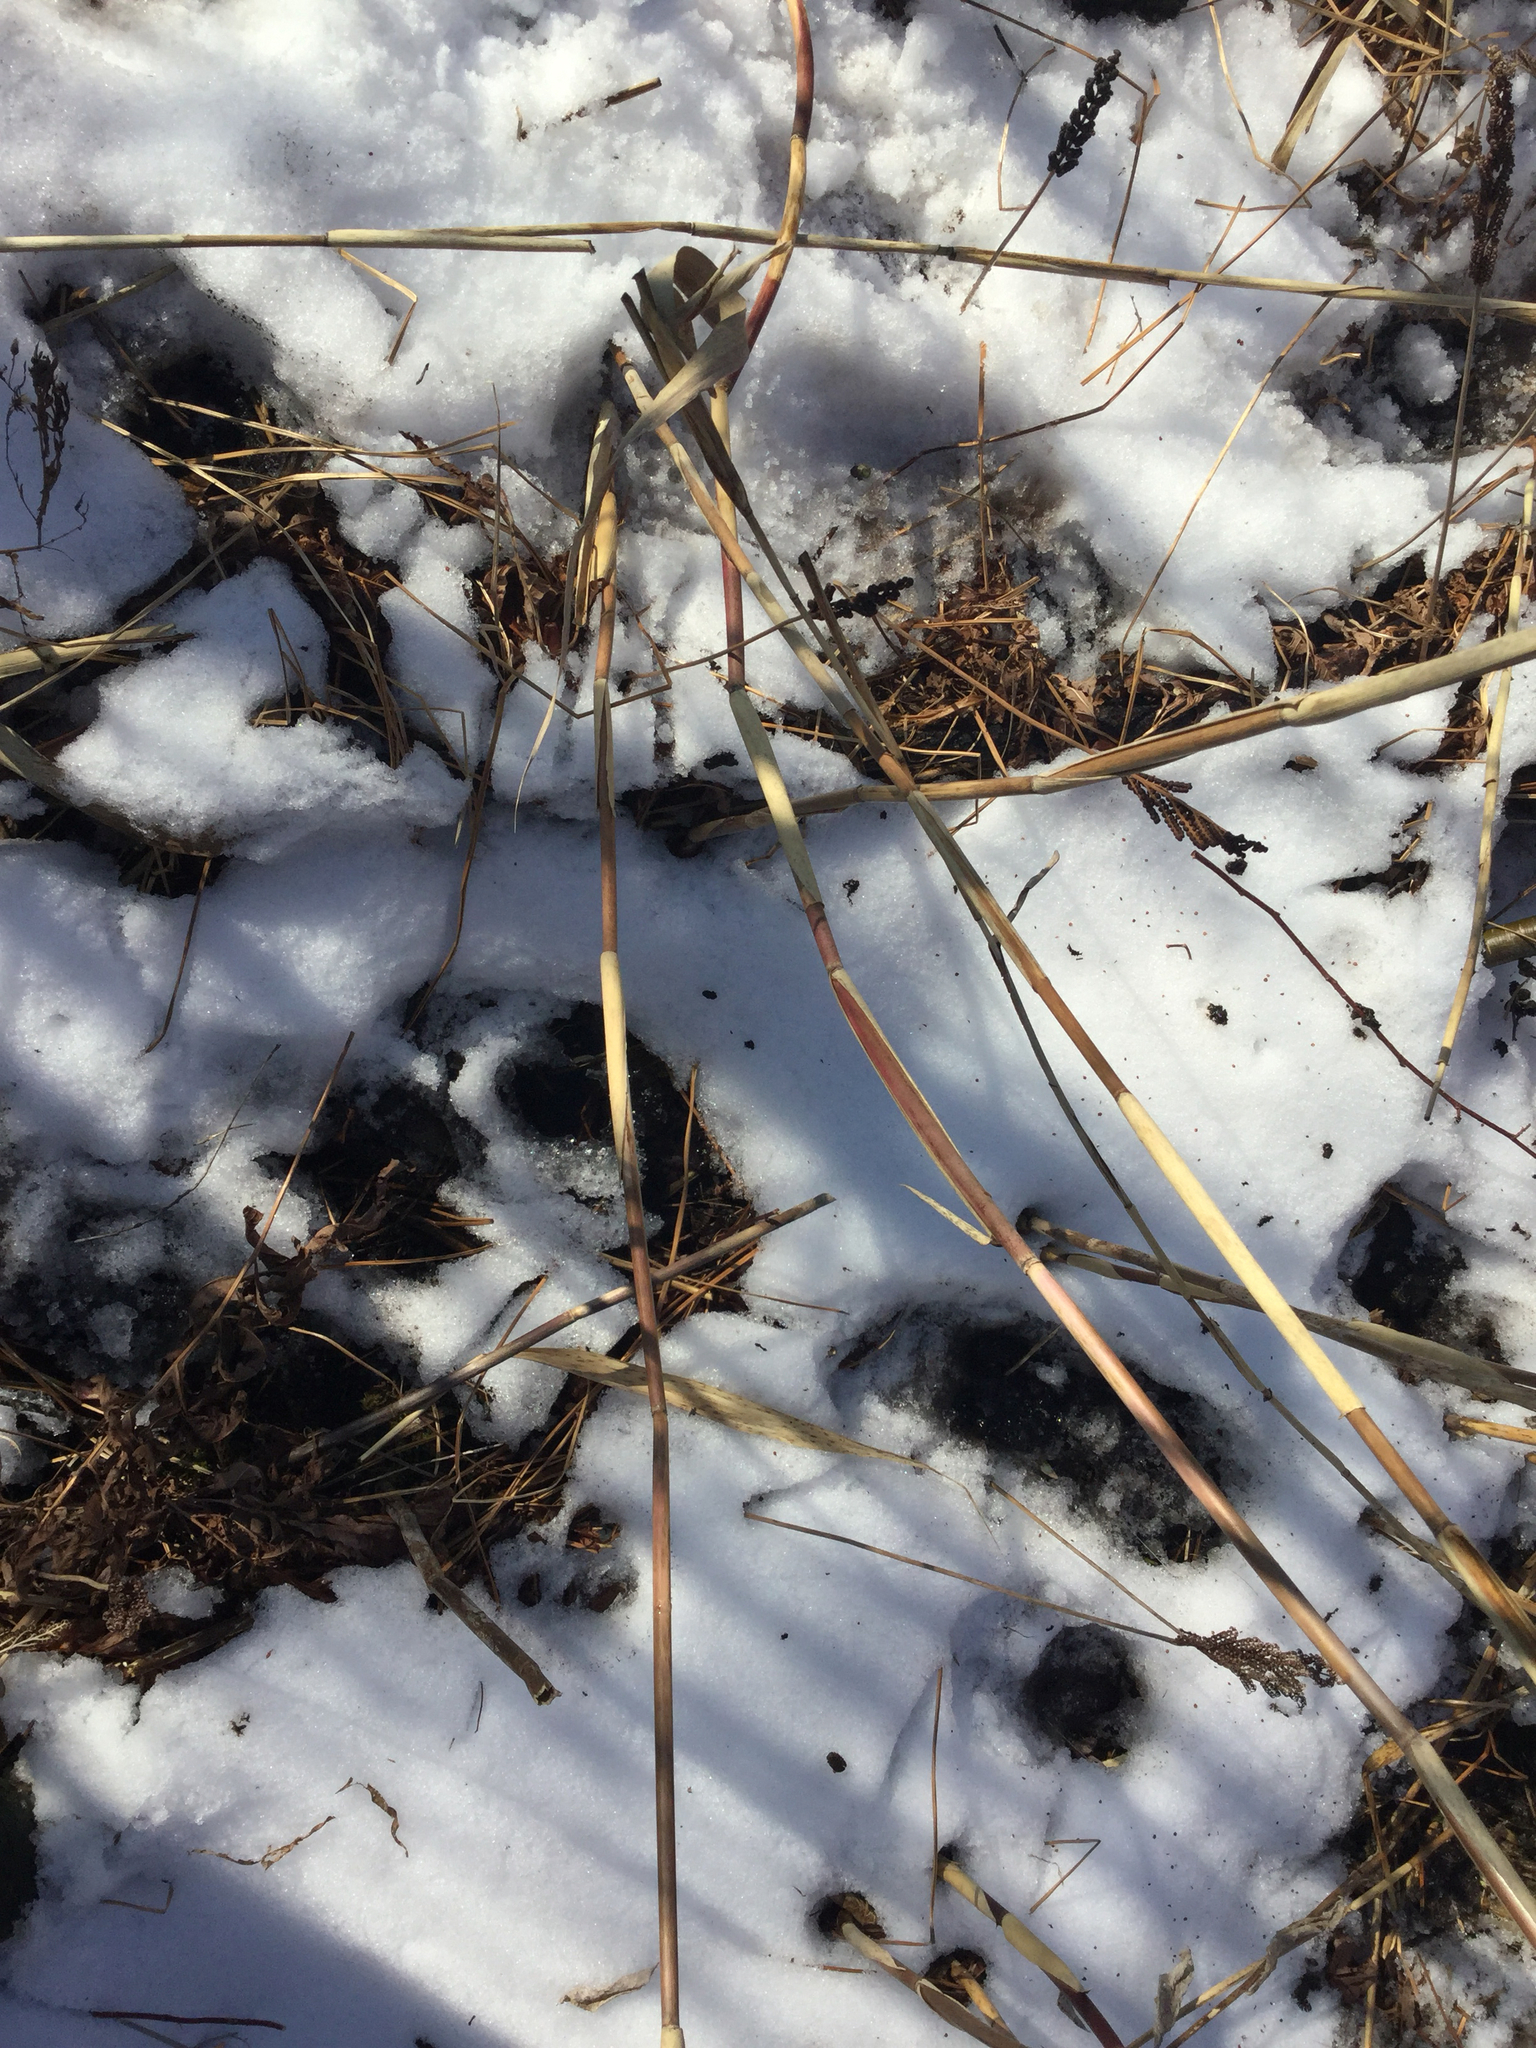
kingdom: Plantae
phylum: Tracheophyta
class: Liliopsida
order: Poales
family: Poaceae
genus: Phragmites
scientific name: Phragmites australis
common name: Common reed
